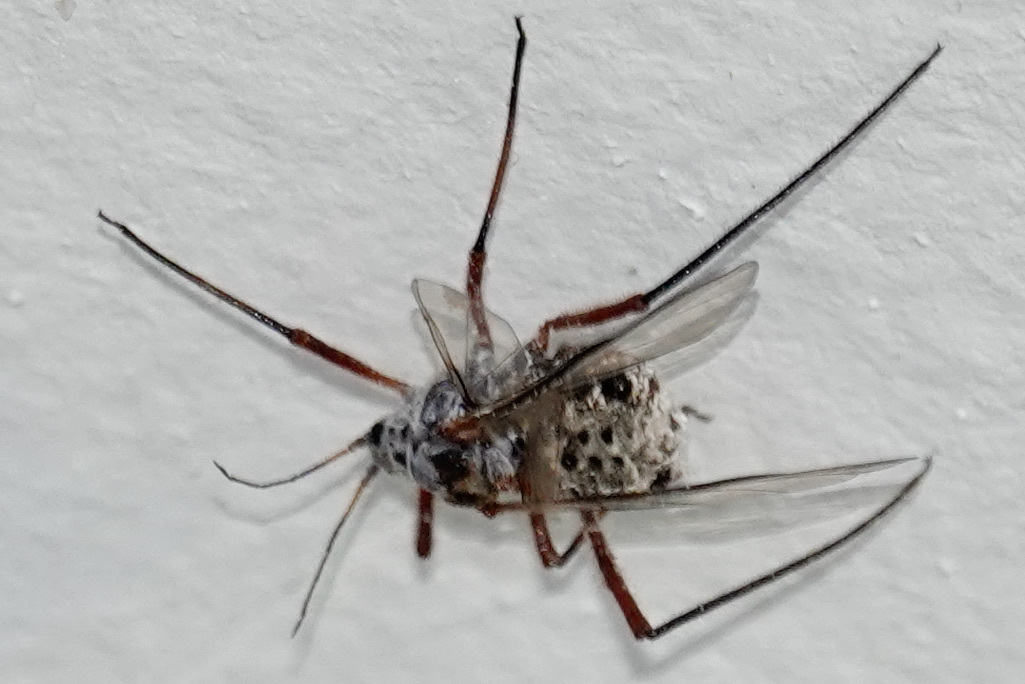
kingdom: Animalia
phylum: Arthropoda
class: Insecta
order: Hemiptera
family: Aphididae
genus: Longistigma
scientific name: Longistigma caryae
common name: Giant bark aphid
